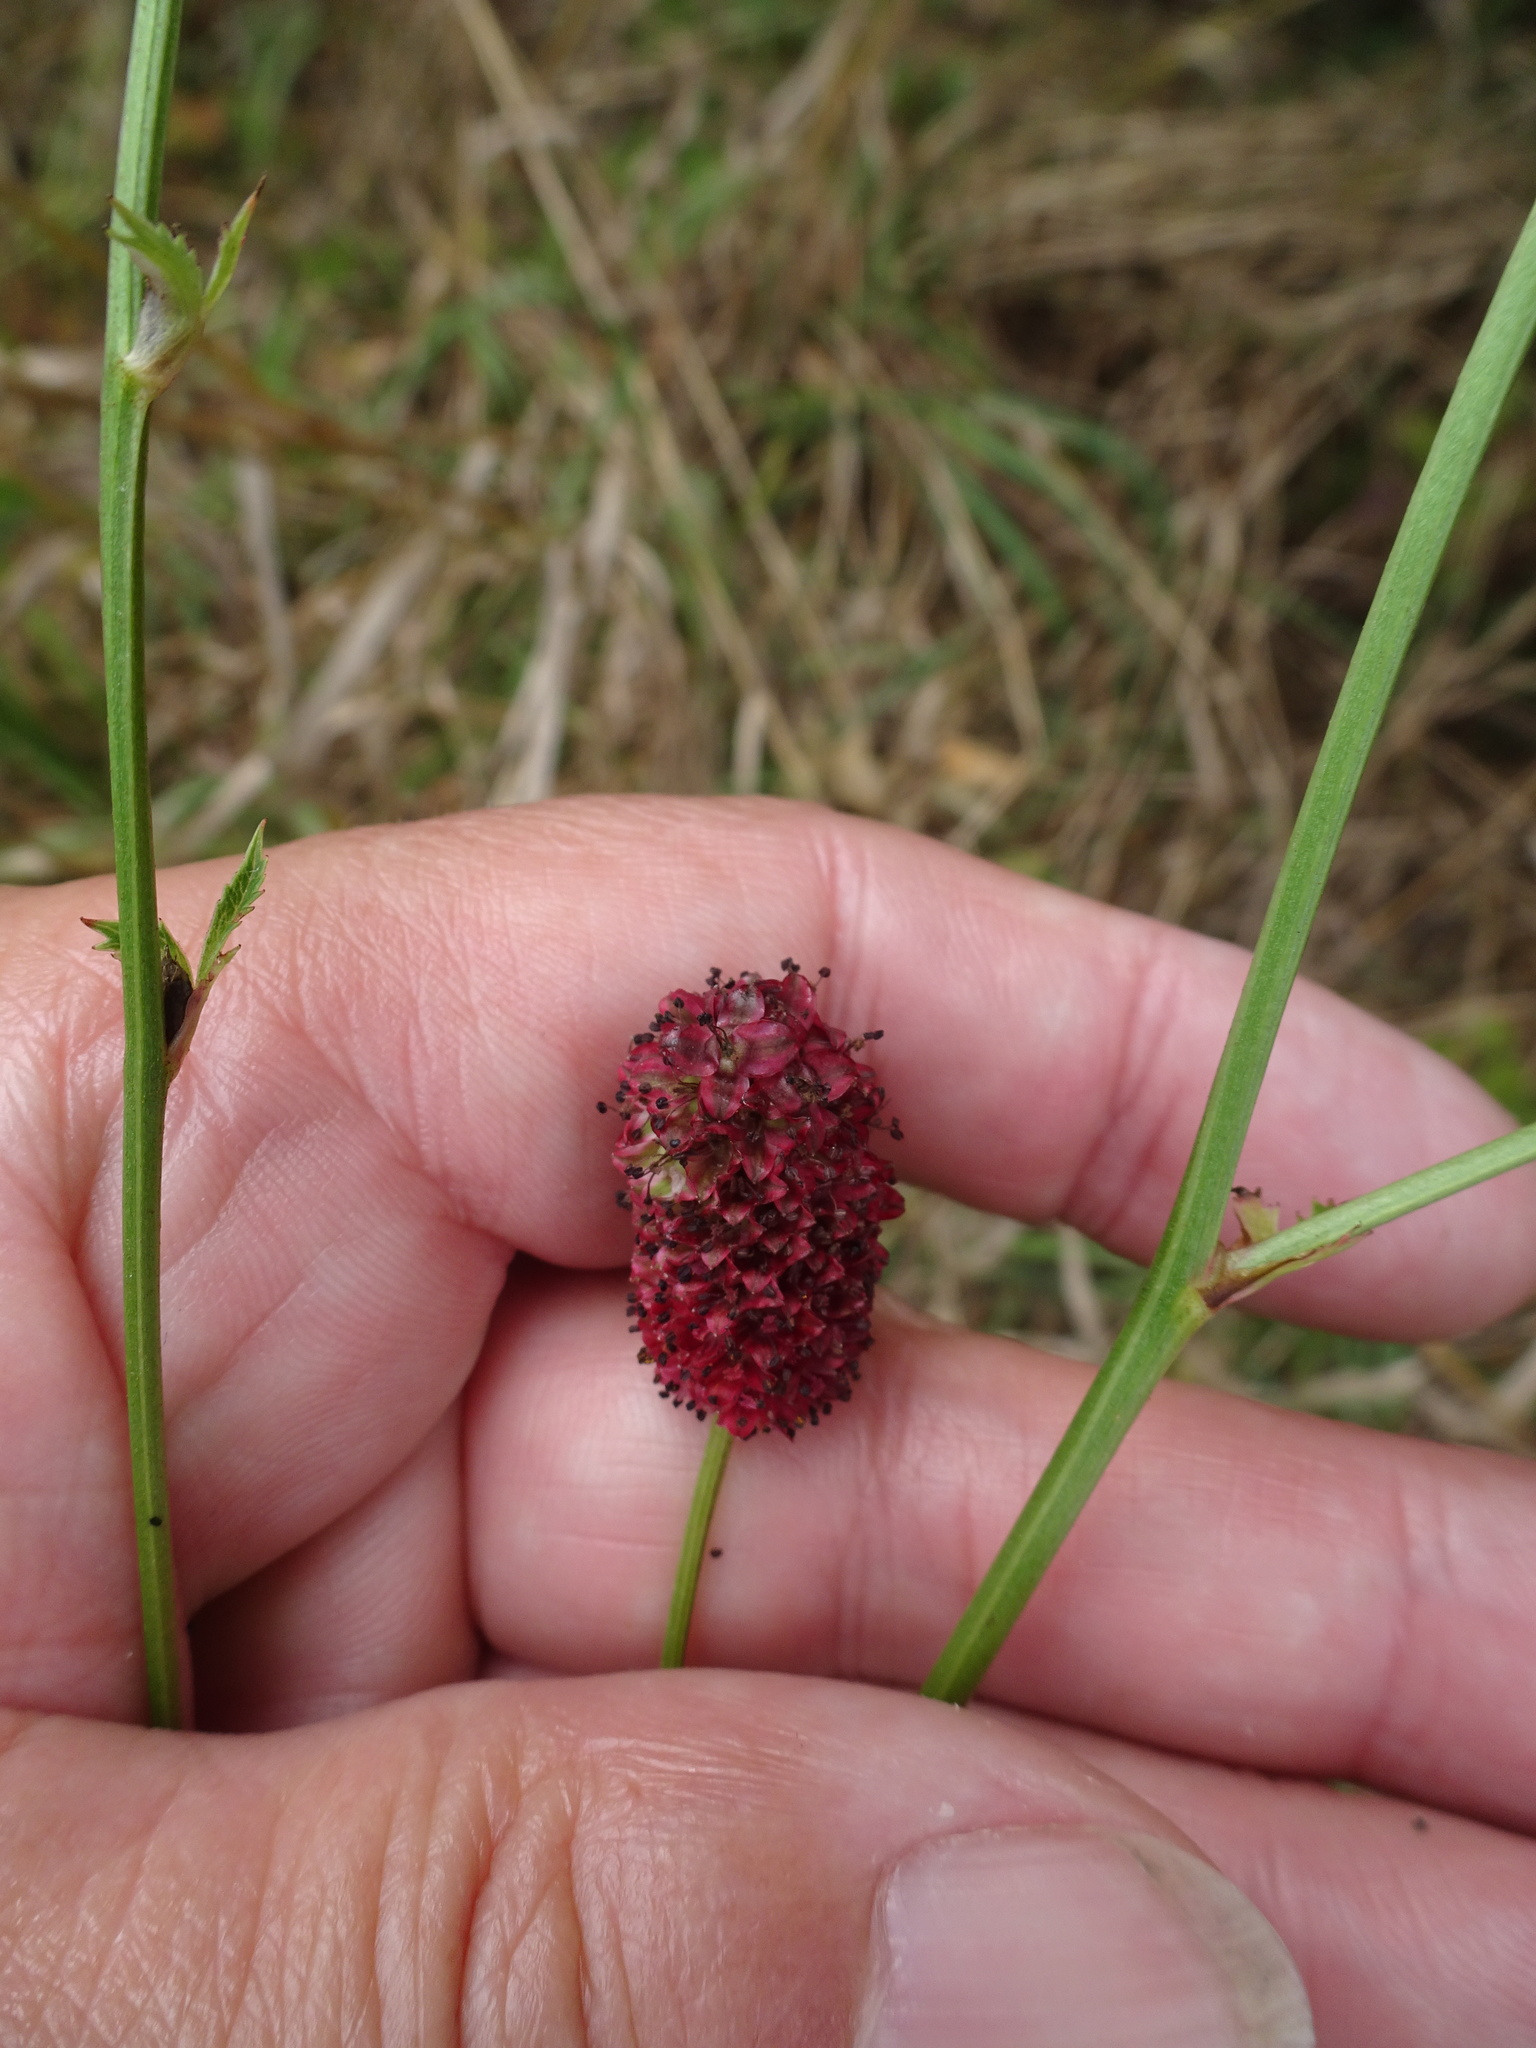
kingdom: Plantae
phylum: Tracheophyta
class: Magnoliopsida
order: Rosales
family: Rosaceae
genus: Sanguisorba
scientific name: Sanguisorba officinalis
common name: Great burnet
